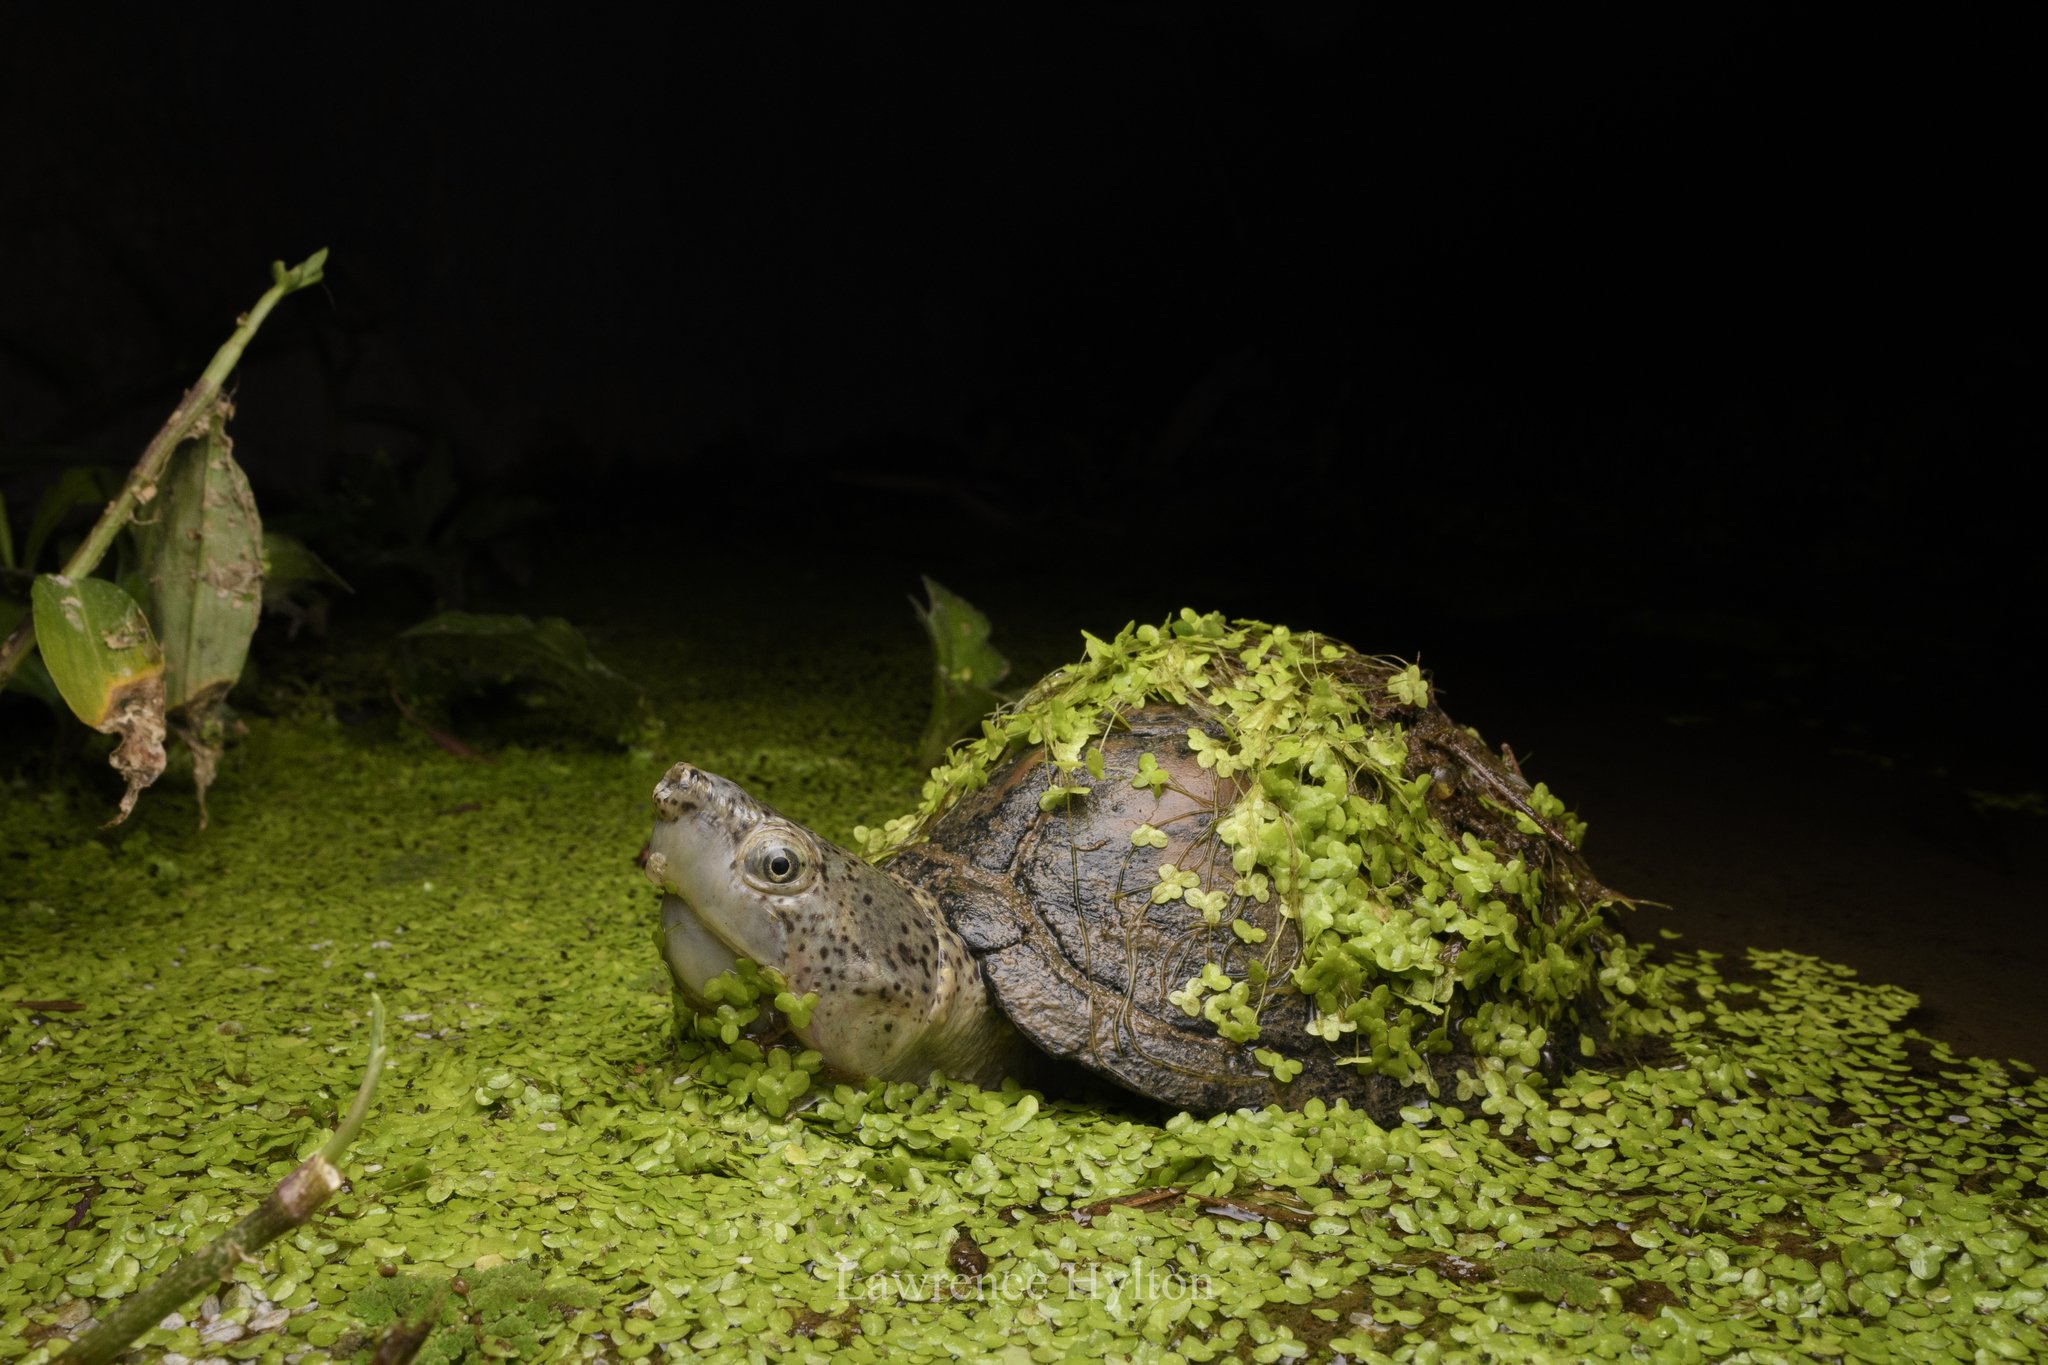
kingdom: Animalia
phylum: Chordata
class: Testudines
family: Kinosternidae
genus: Sternotherus
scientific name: Sternotherus carinatus
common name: Razor-backed musk turtle
